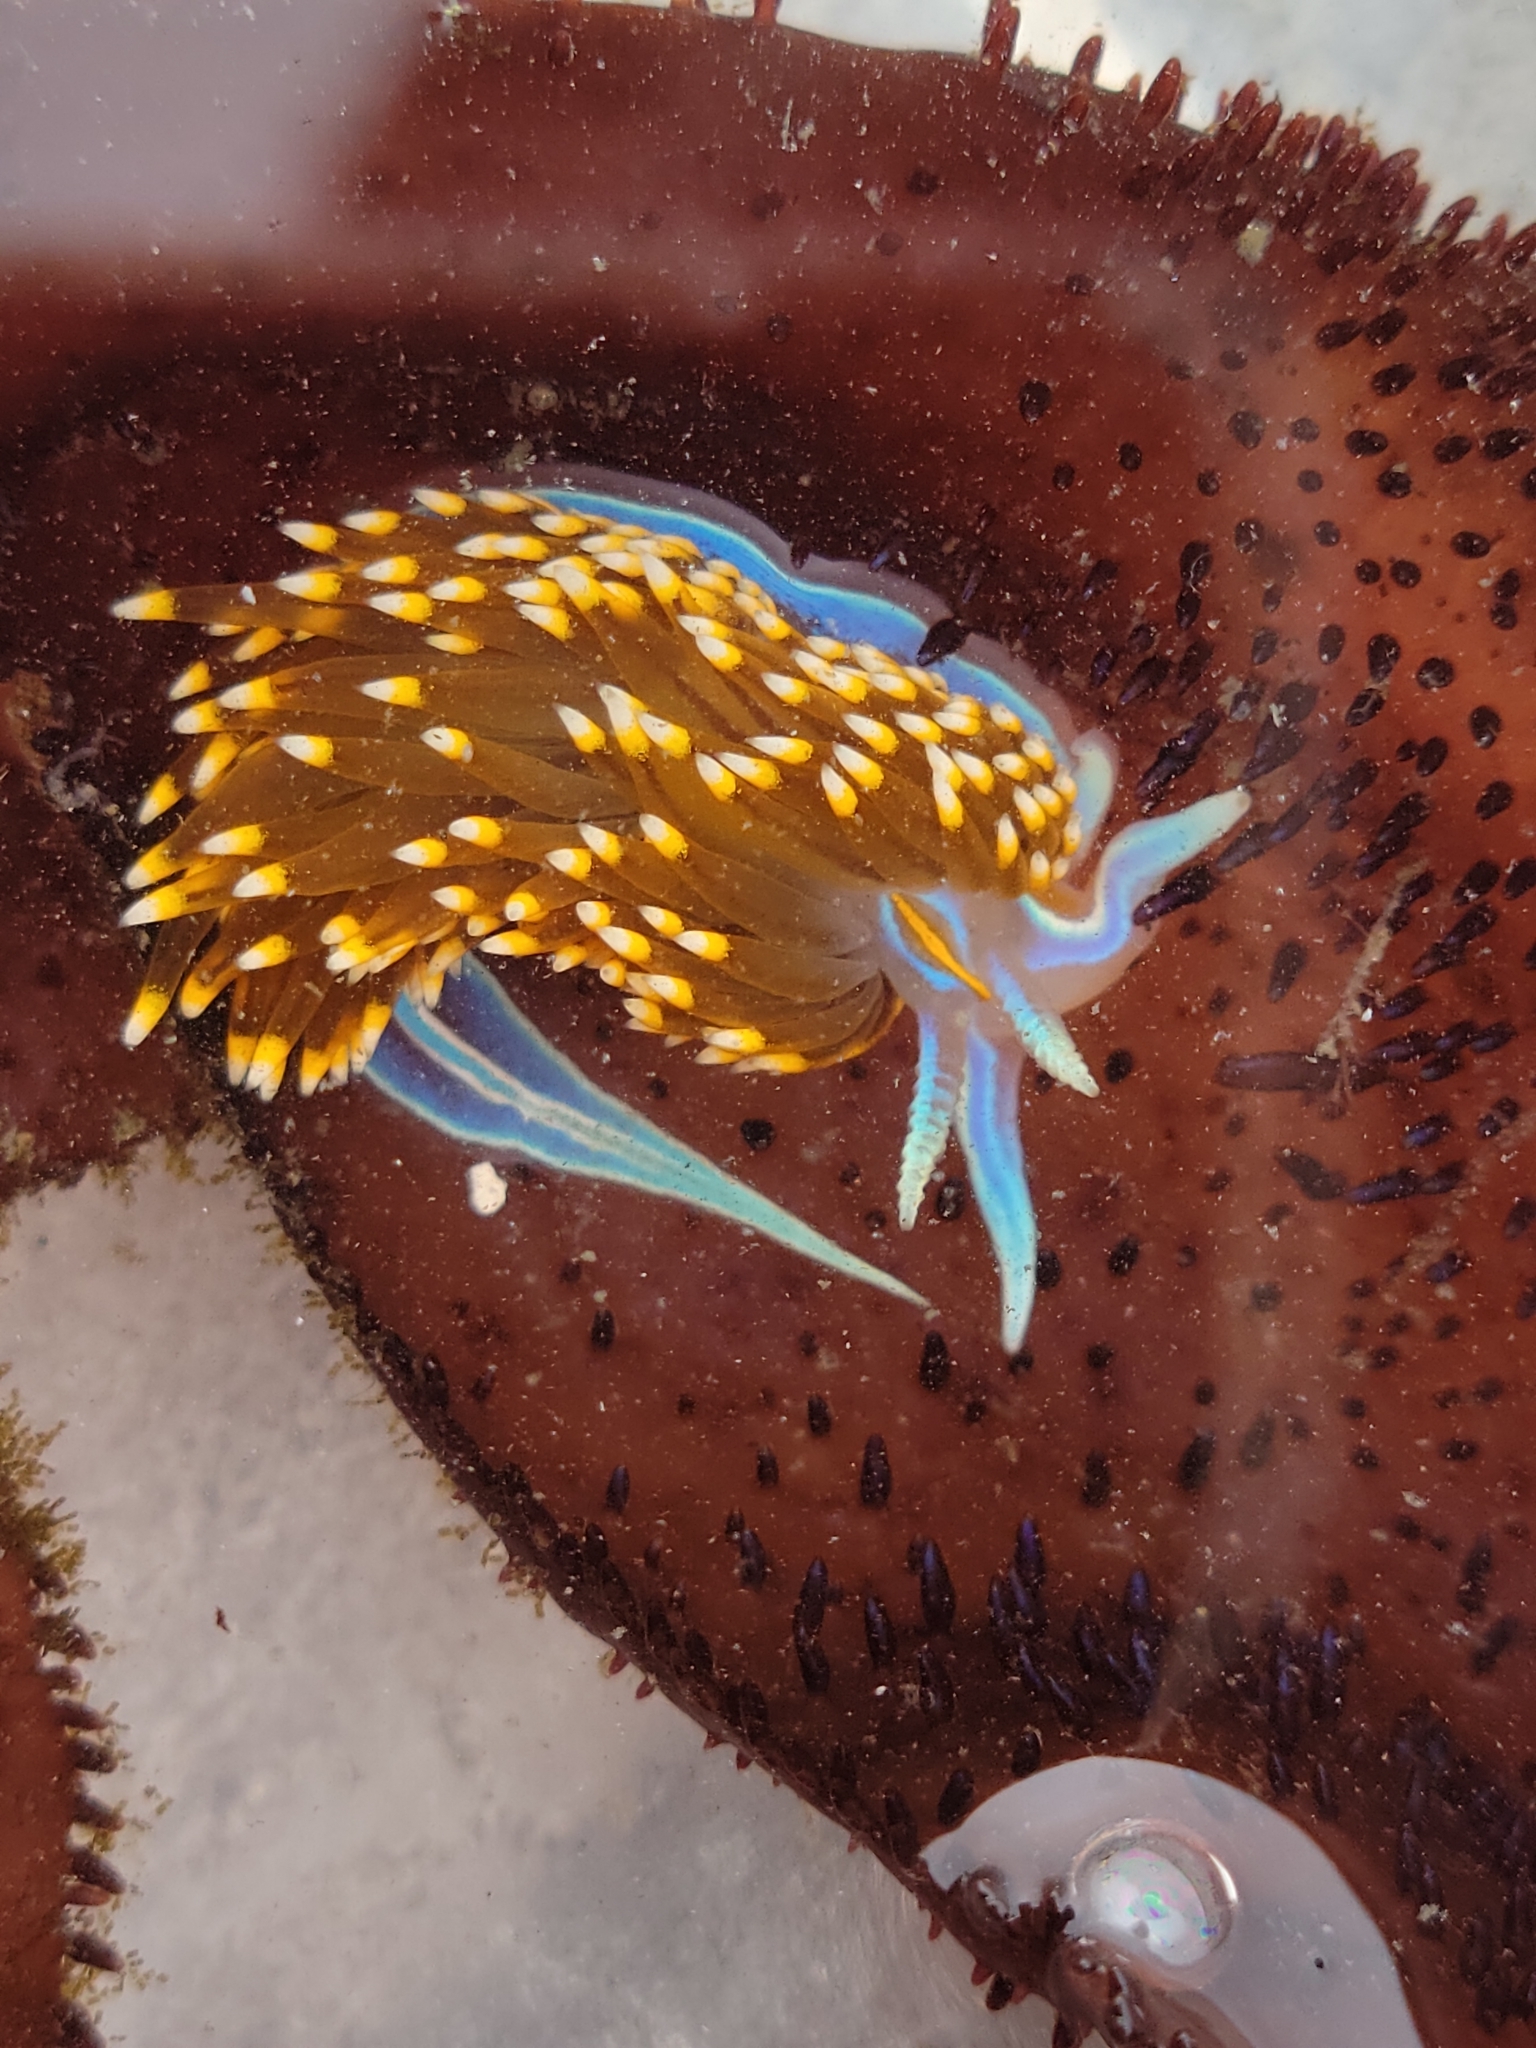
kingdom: Animalia
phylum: Mollusca
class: Gastropoda
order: Nudibranchia
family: Myrrhinidae
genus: Hermissenda
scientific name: Hermissenda opalescens
